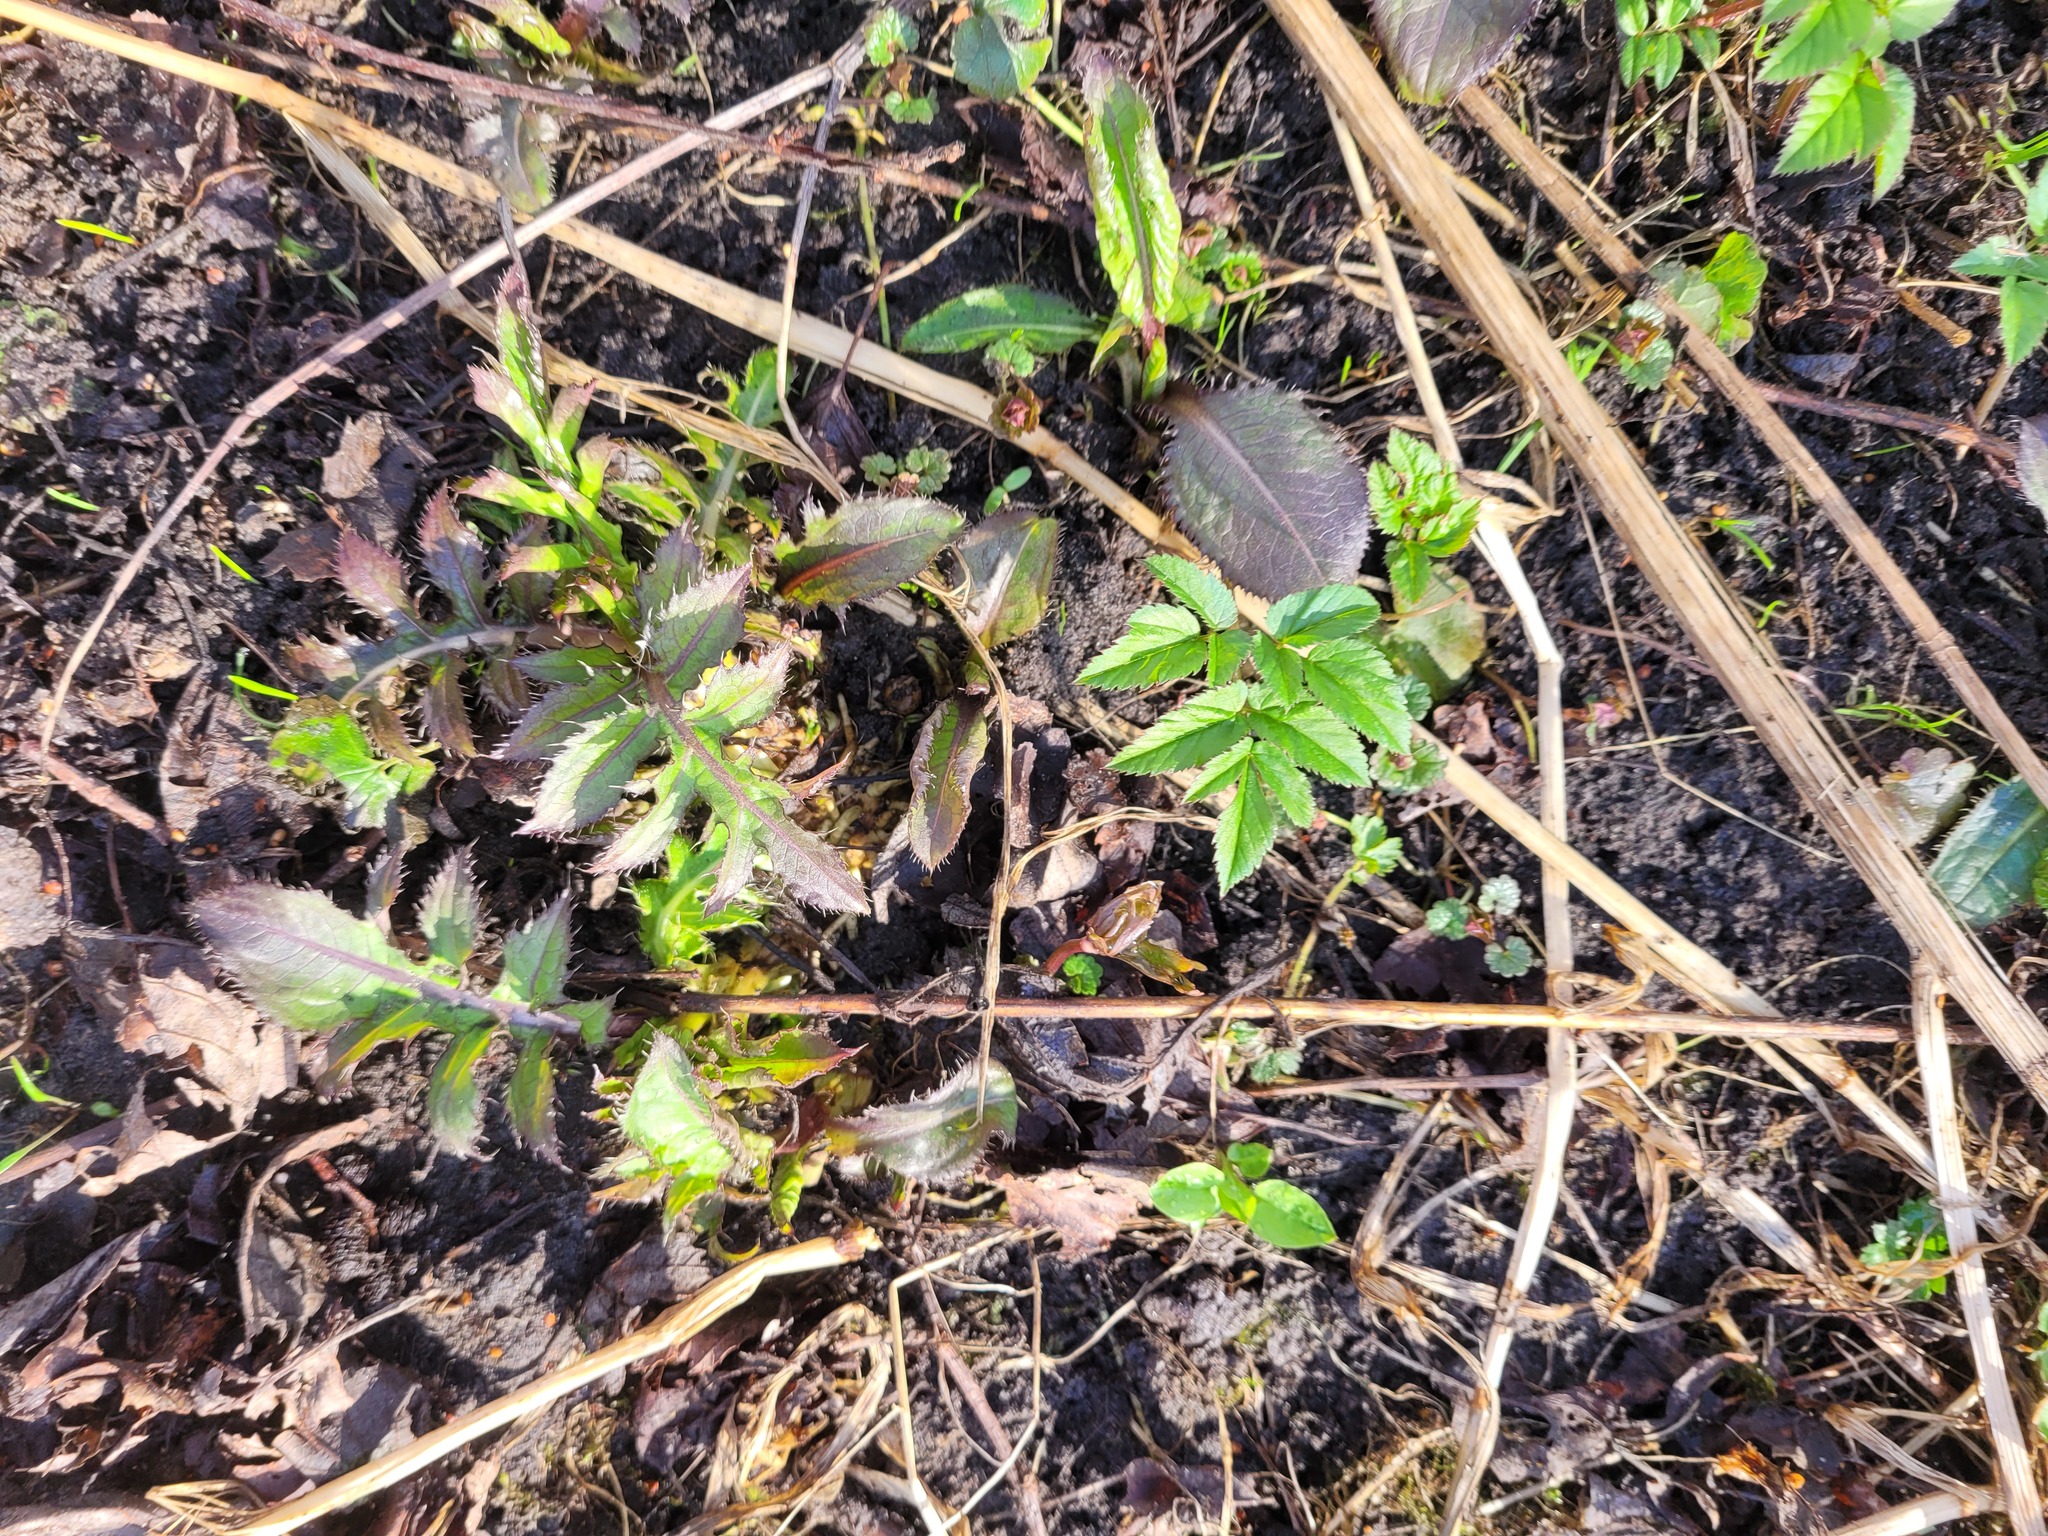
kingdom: Plantae
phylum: Tracheophyta
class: Magnoliopsida
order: Asterales
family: Asteraceae
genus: Cirsium
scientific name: Cirsium oleraceum
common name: Cabbage thistle
